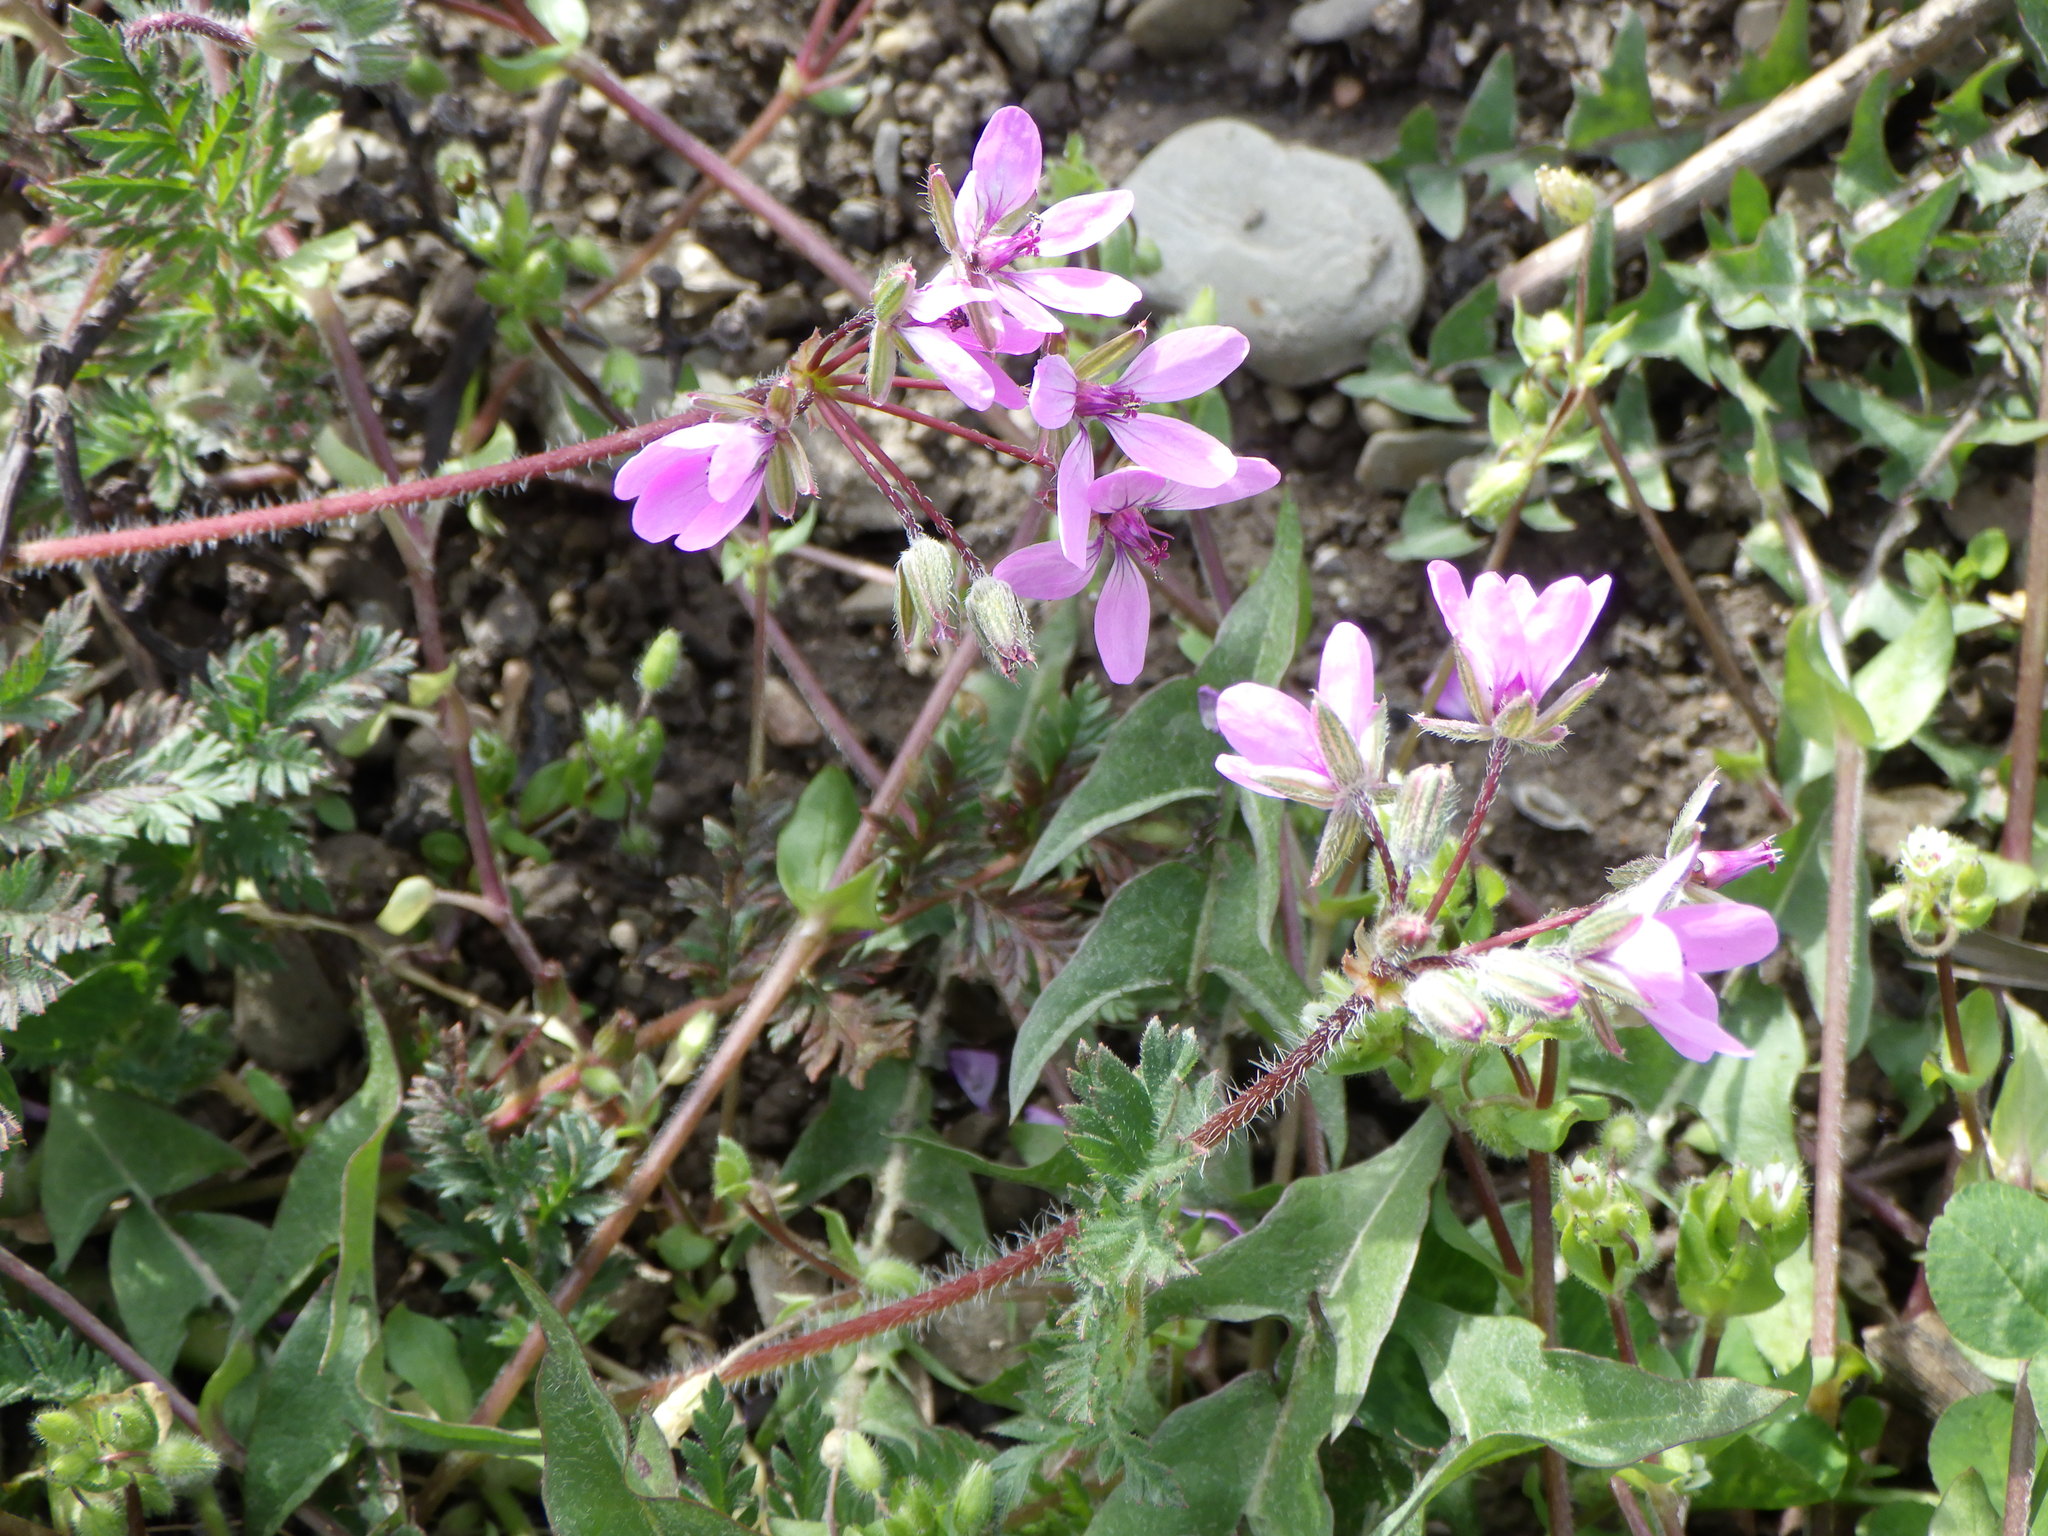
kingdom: Plantae
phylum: Tracheophyta
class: Magnoliopsida
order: Geraniales
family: Geraniaceae
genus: Erodium
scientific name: Erodium cicutarium
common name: Common stork's-bill
